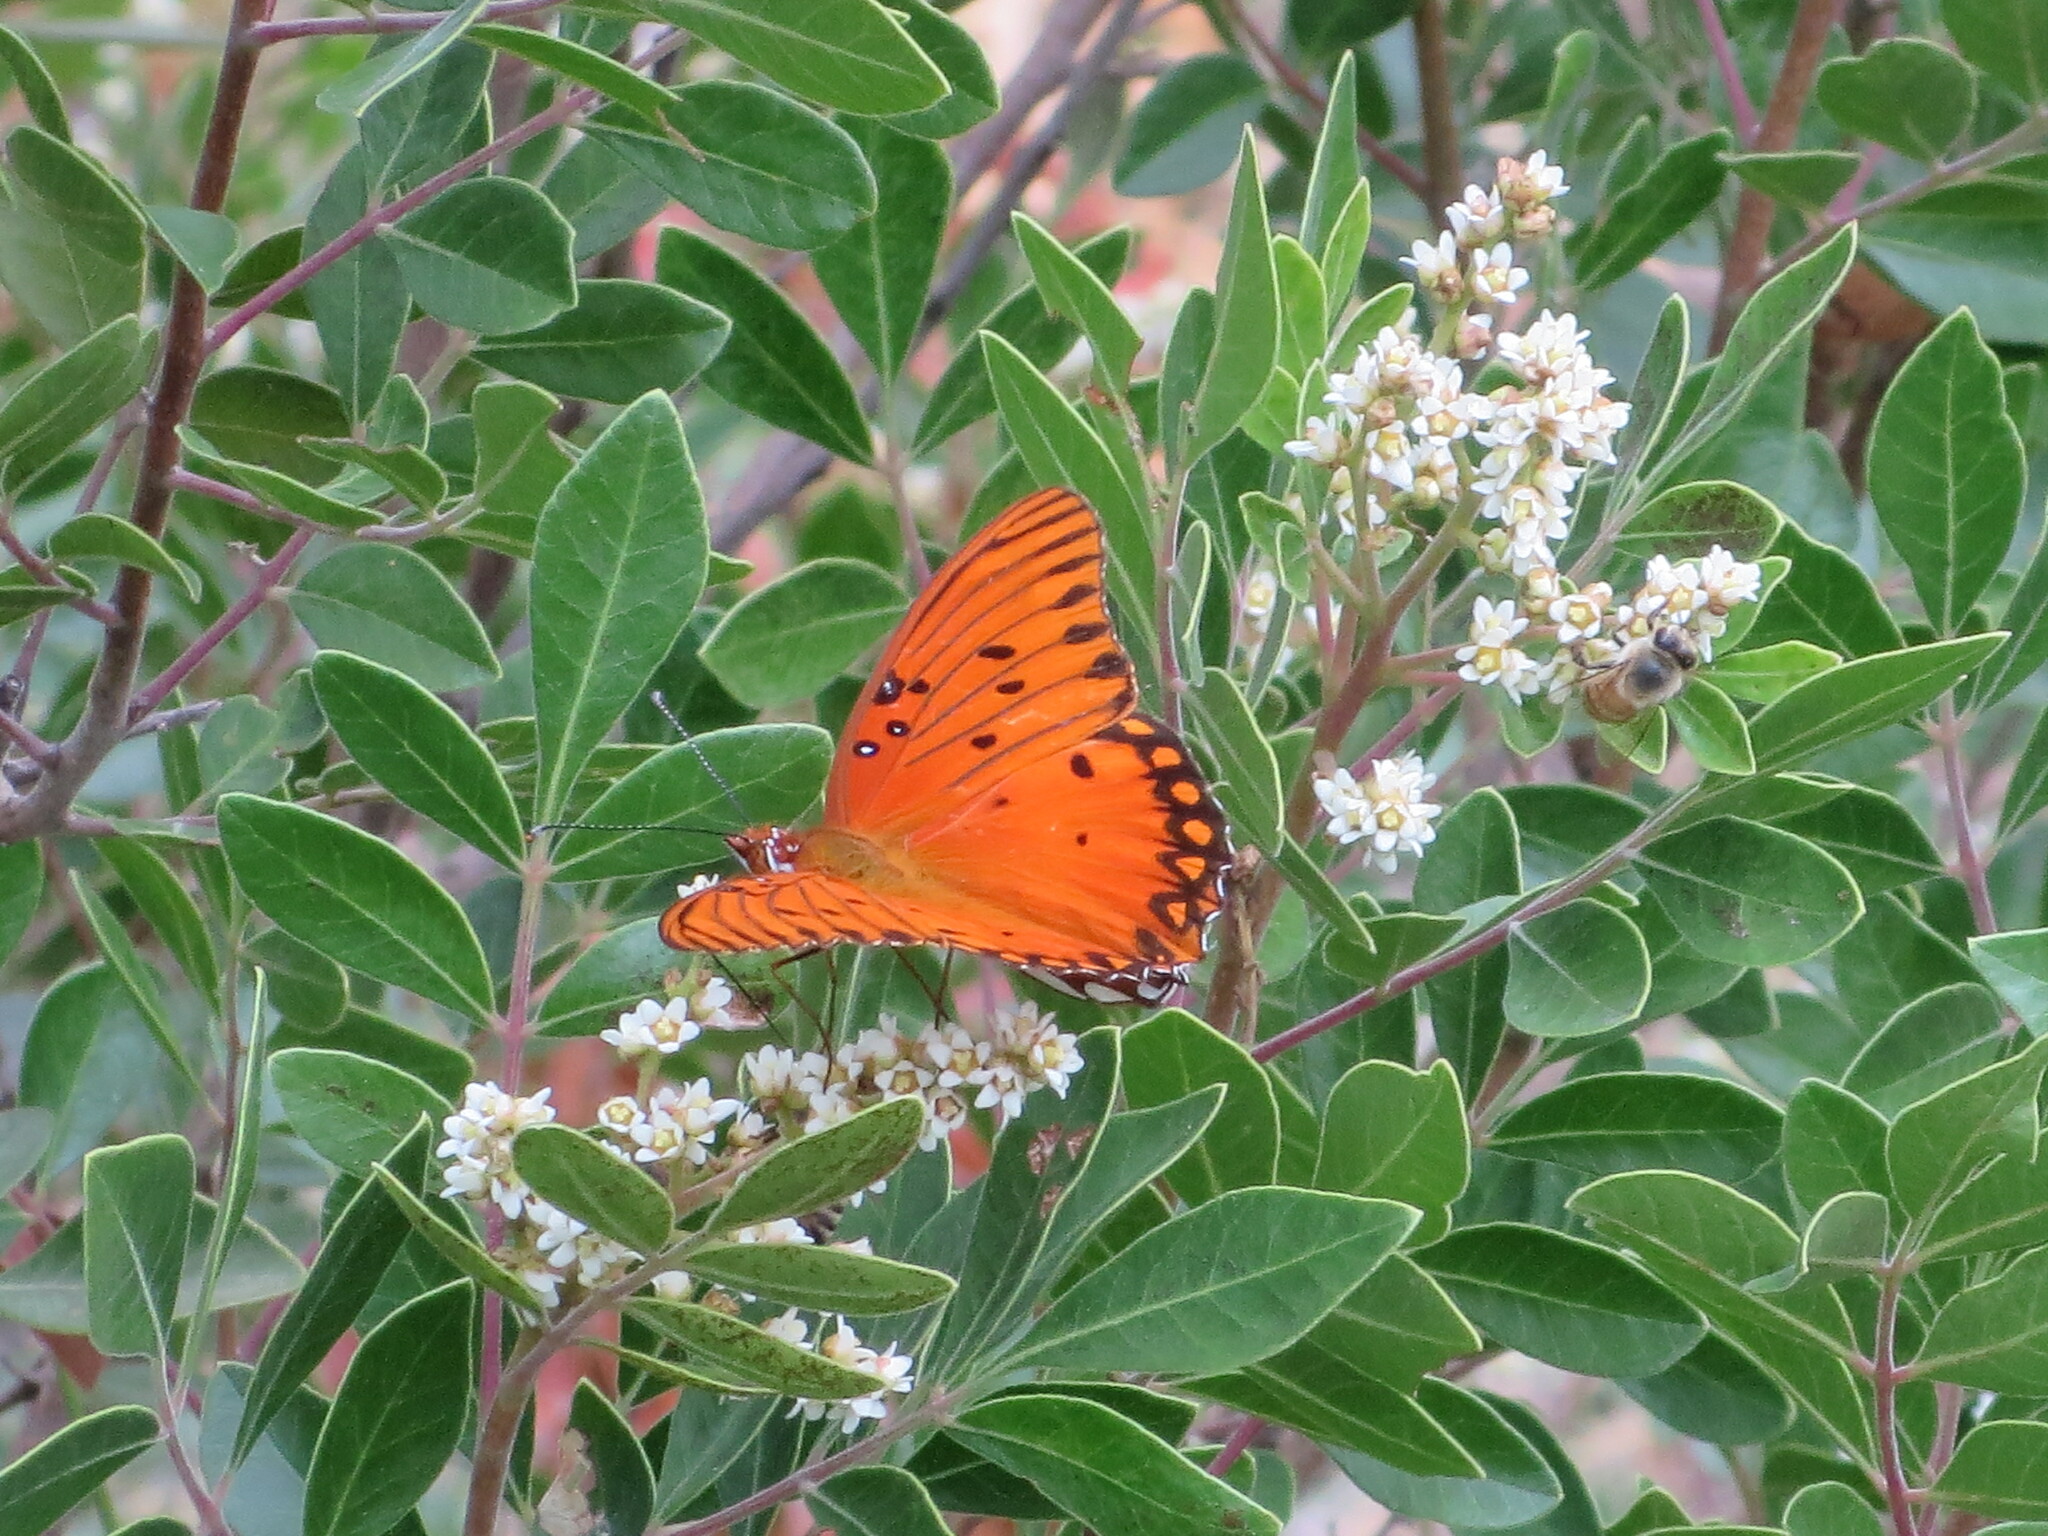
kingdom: Animalia
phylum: Arthropoda
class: Insecta
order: Lepidoptera
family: Nymphalidae
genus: Dione
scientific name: Dione vanillae
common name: Gulf fritillary
